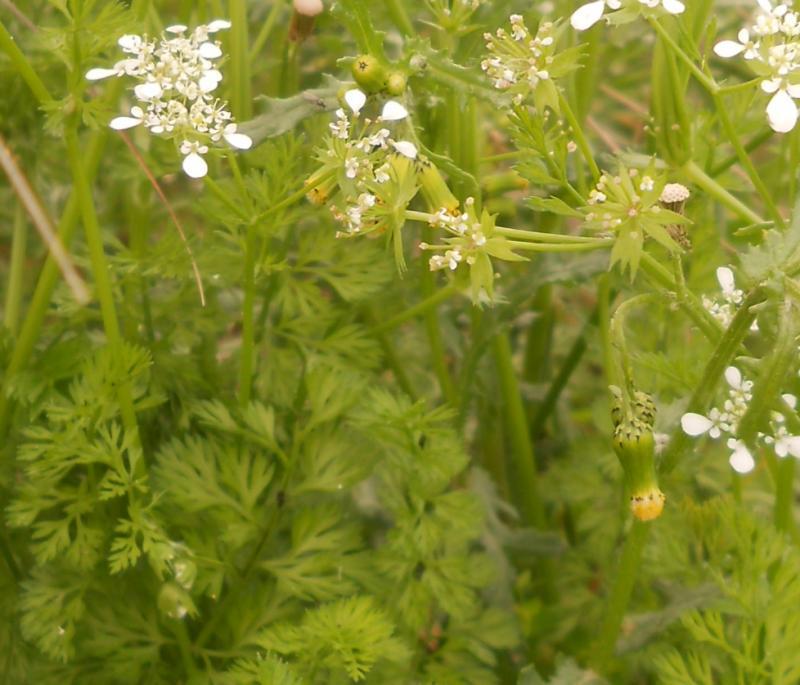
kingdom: Plantae
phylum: Tracheophyta
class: Magnoliopsida
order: Apiales
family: Apiaceae
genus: Scandix
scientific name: Scandix pecten-veneris
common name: Shepherd's-needle
